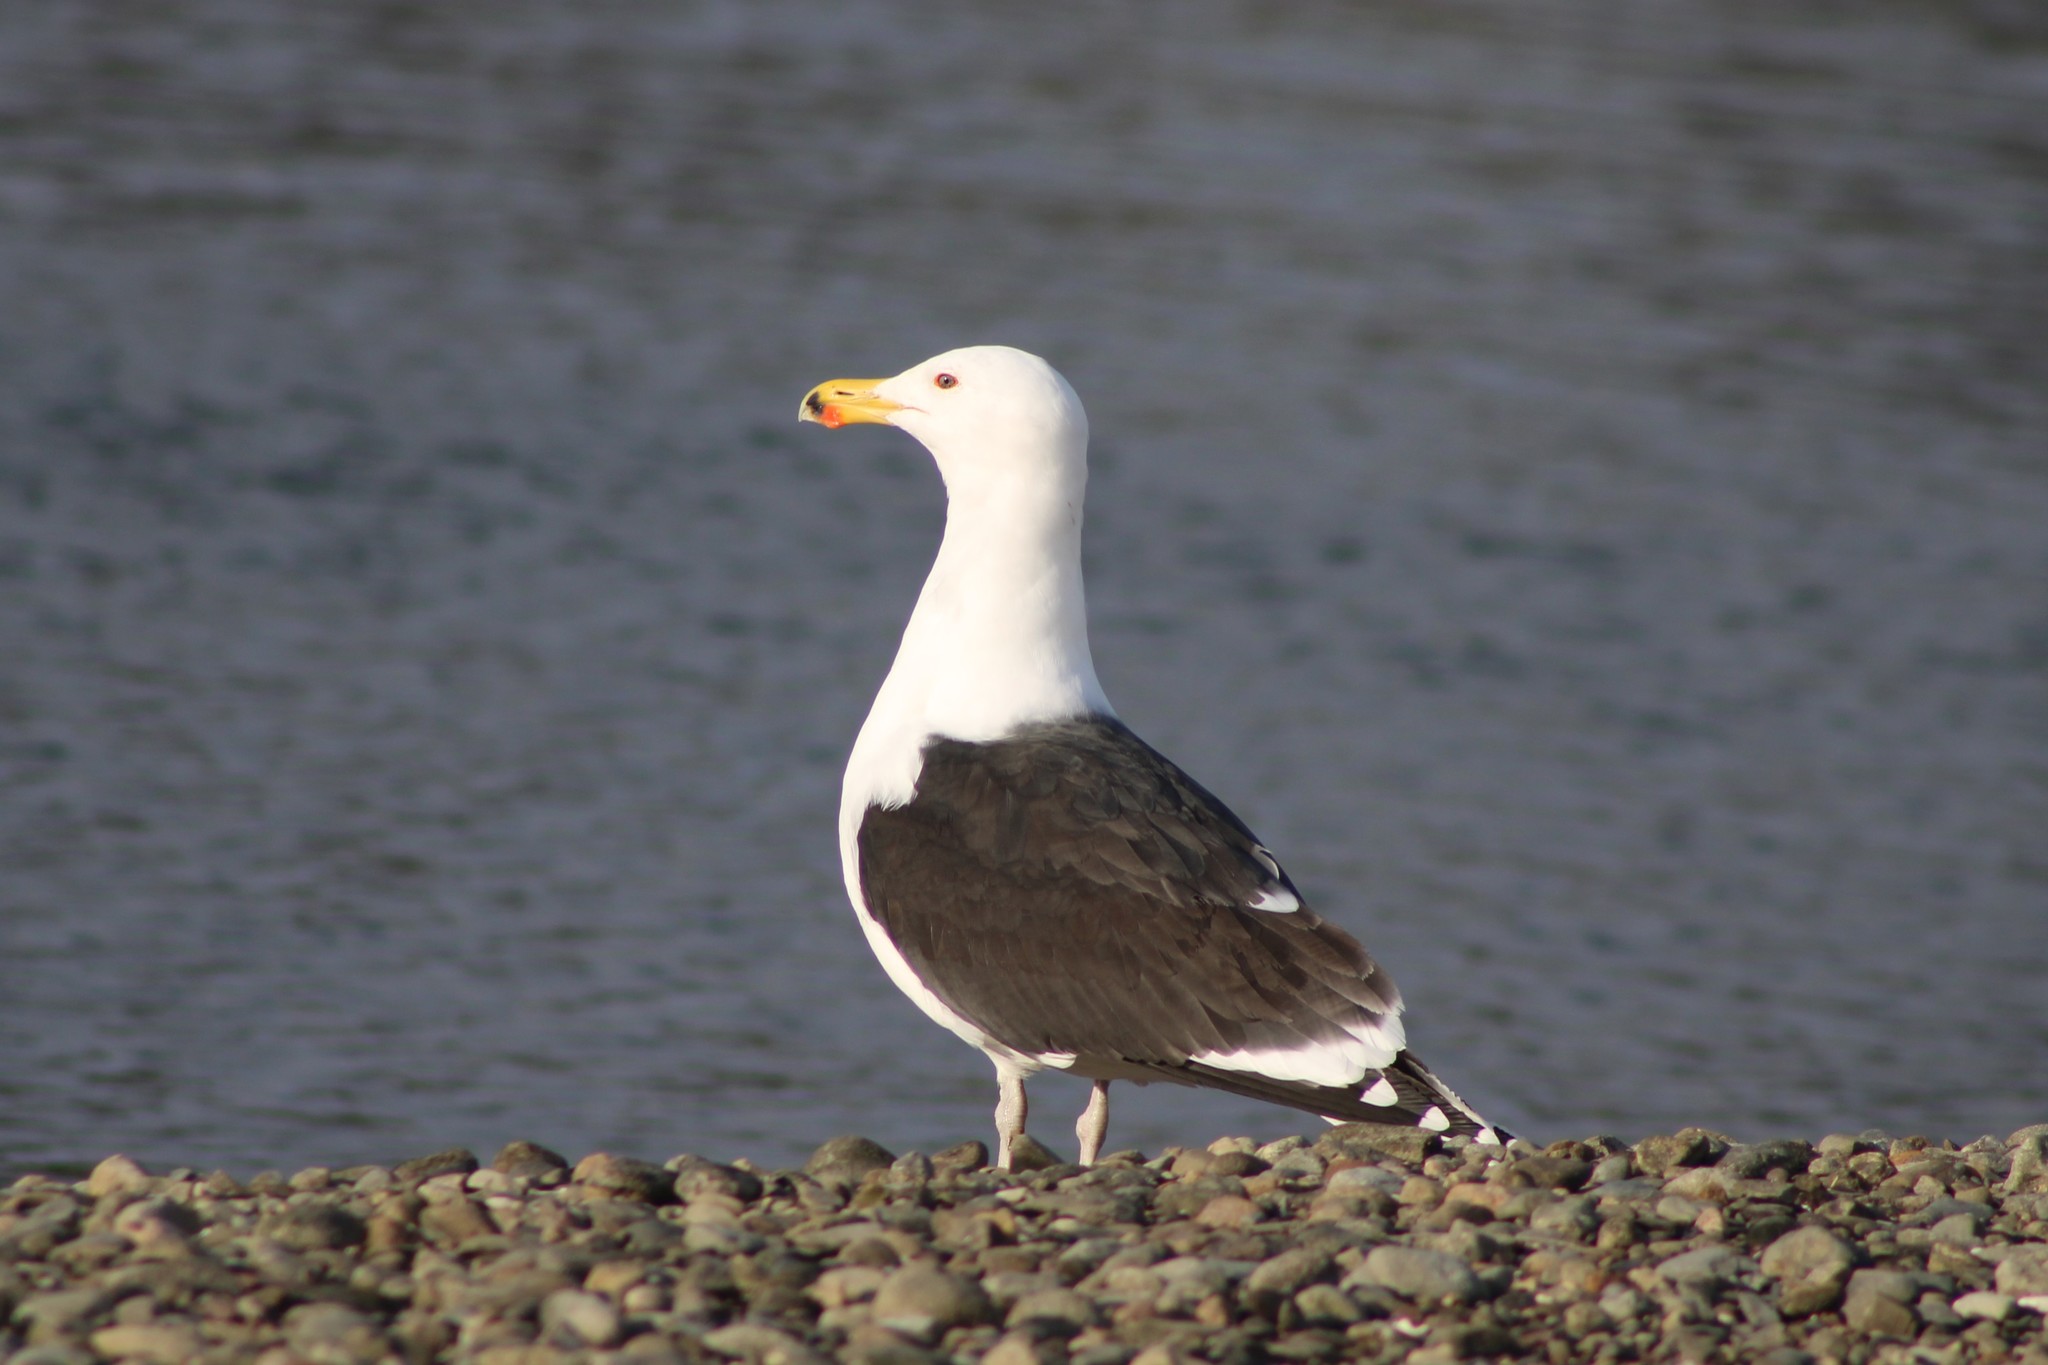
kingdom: Animalia
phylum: Chordata
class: Aves
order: Charadriiformes
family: Laridae
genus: Larus
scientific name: Larus marinus
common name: Great black-backed gull
